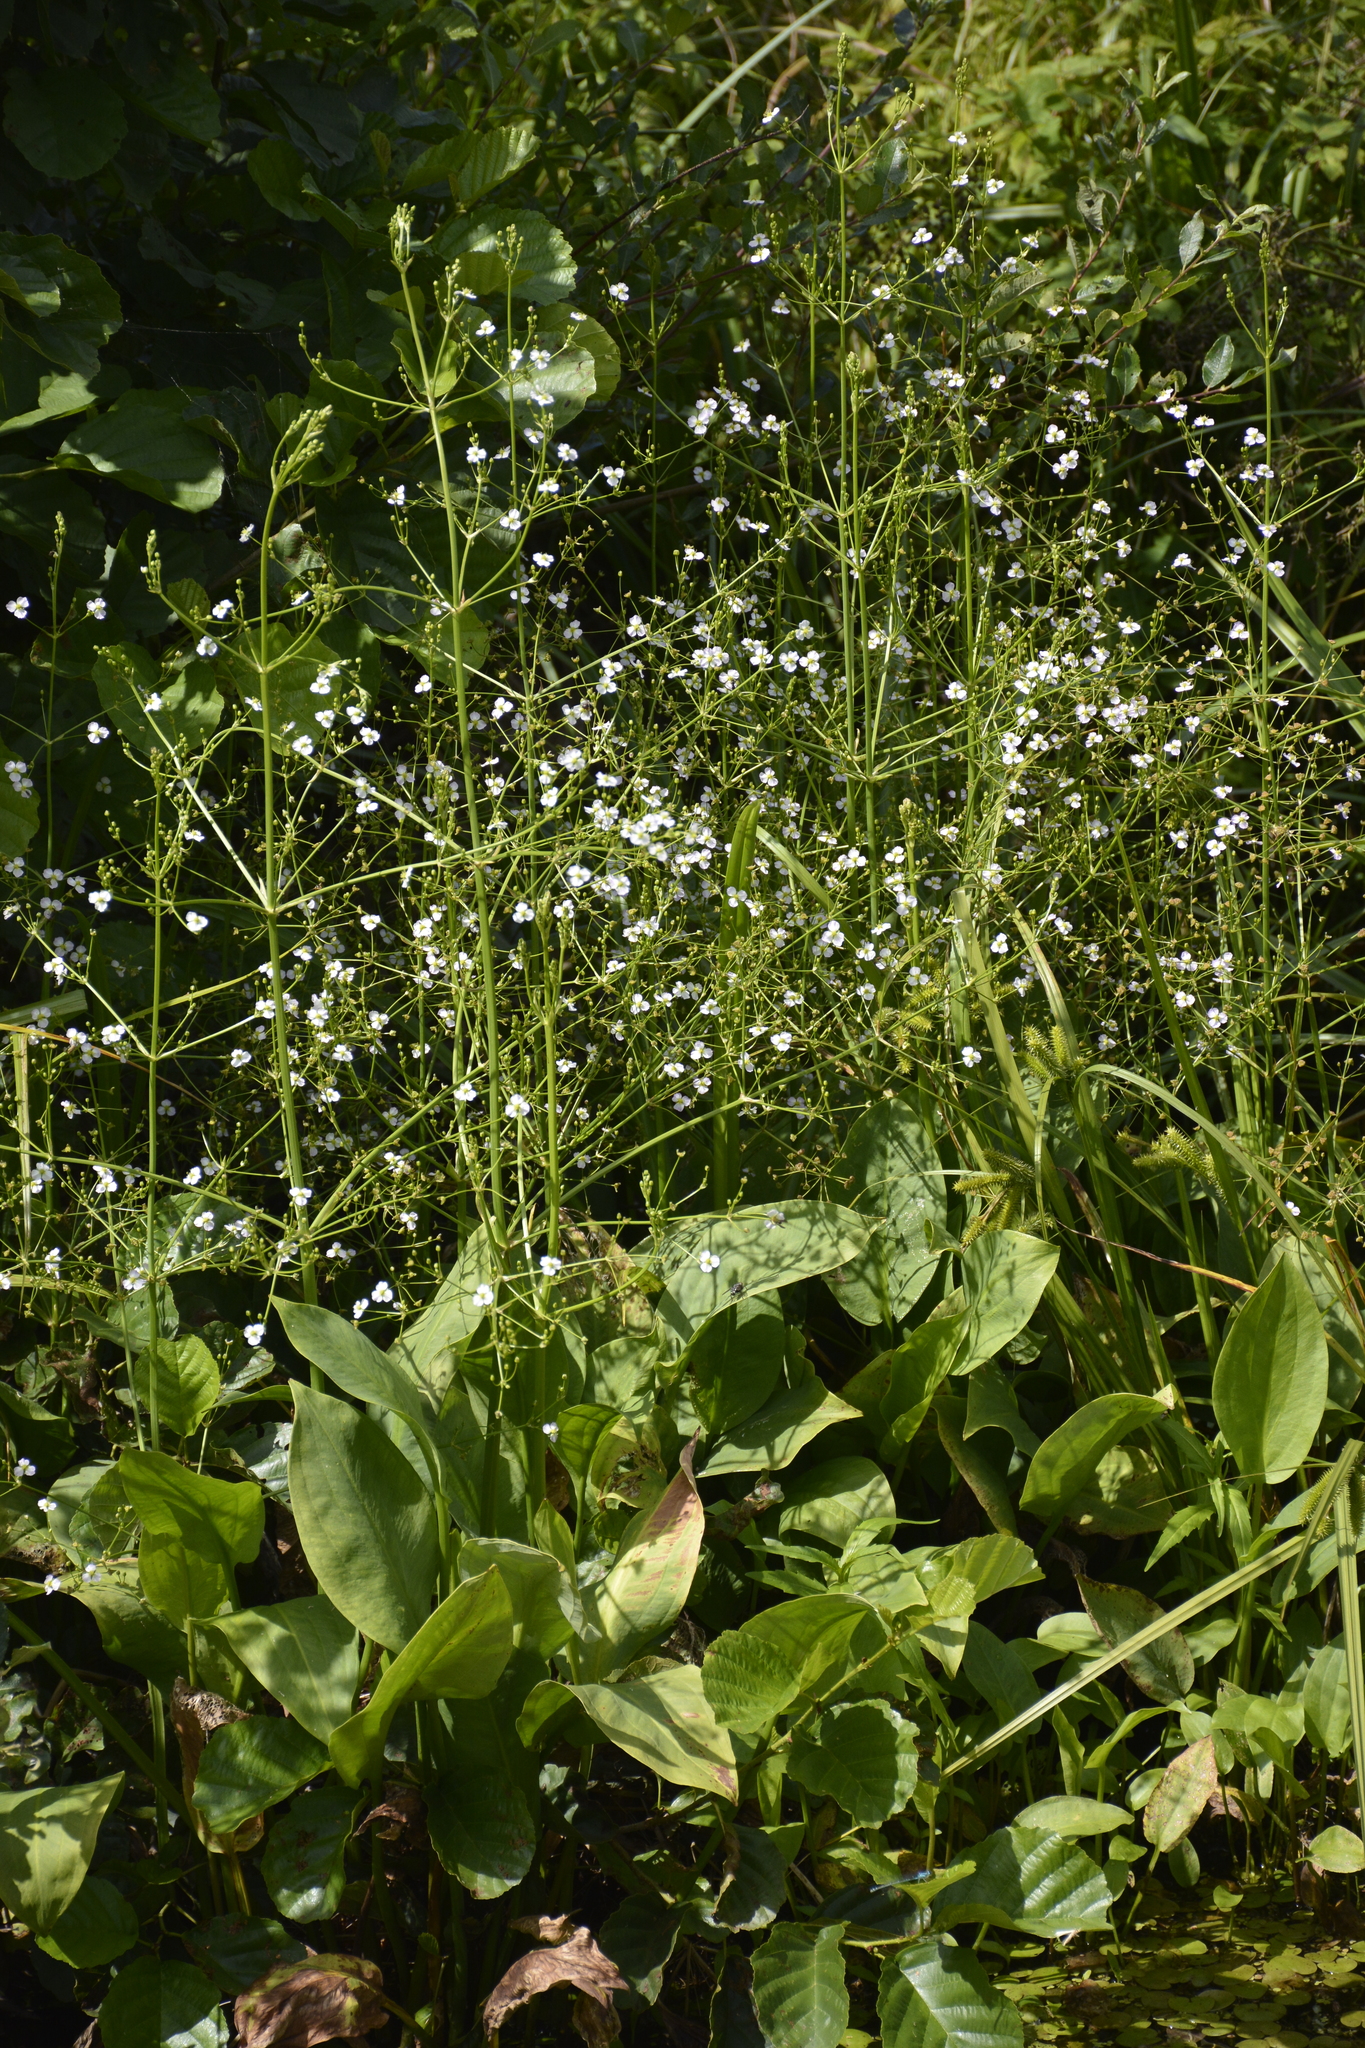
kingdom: Plantae
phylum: Tracheophyta
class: Liliopsida
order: Alismatales
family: Alismataceae
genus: Alisma
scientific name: Alisma plantago-aquatica
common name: Water-plantain
